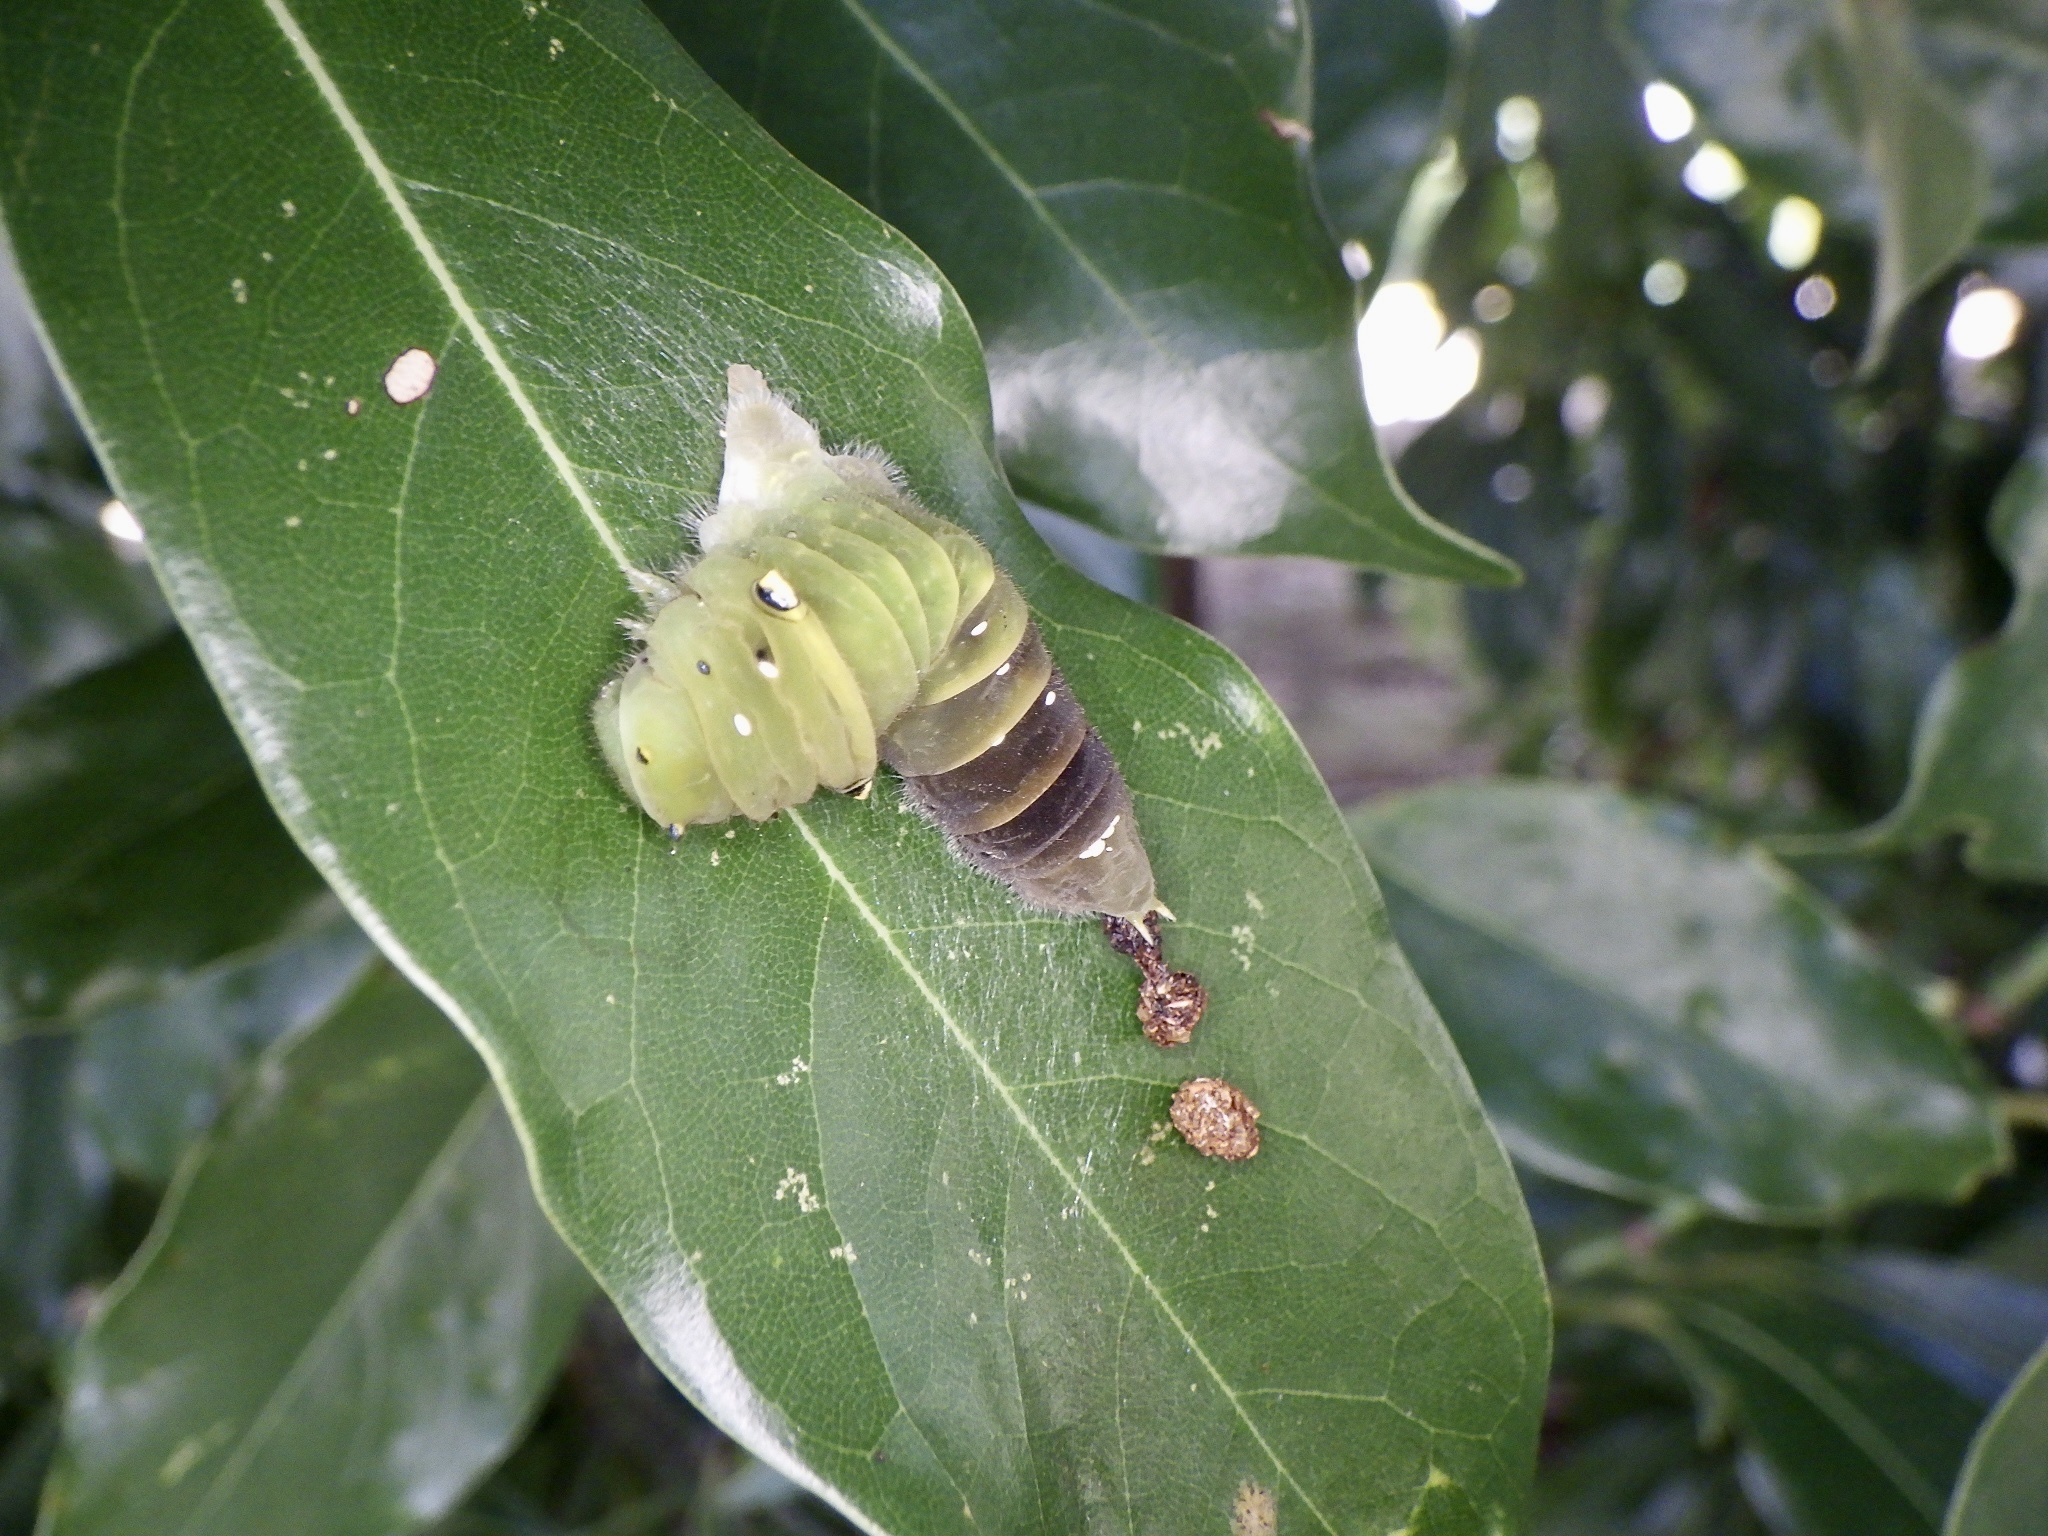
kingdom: Fungi
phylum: Ascomycota
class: Sordariomycetes
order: Microascales
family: Microascaceae
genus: Graphium
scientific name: Graphium sarpedon
